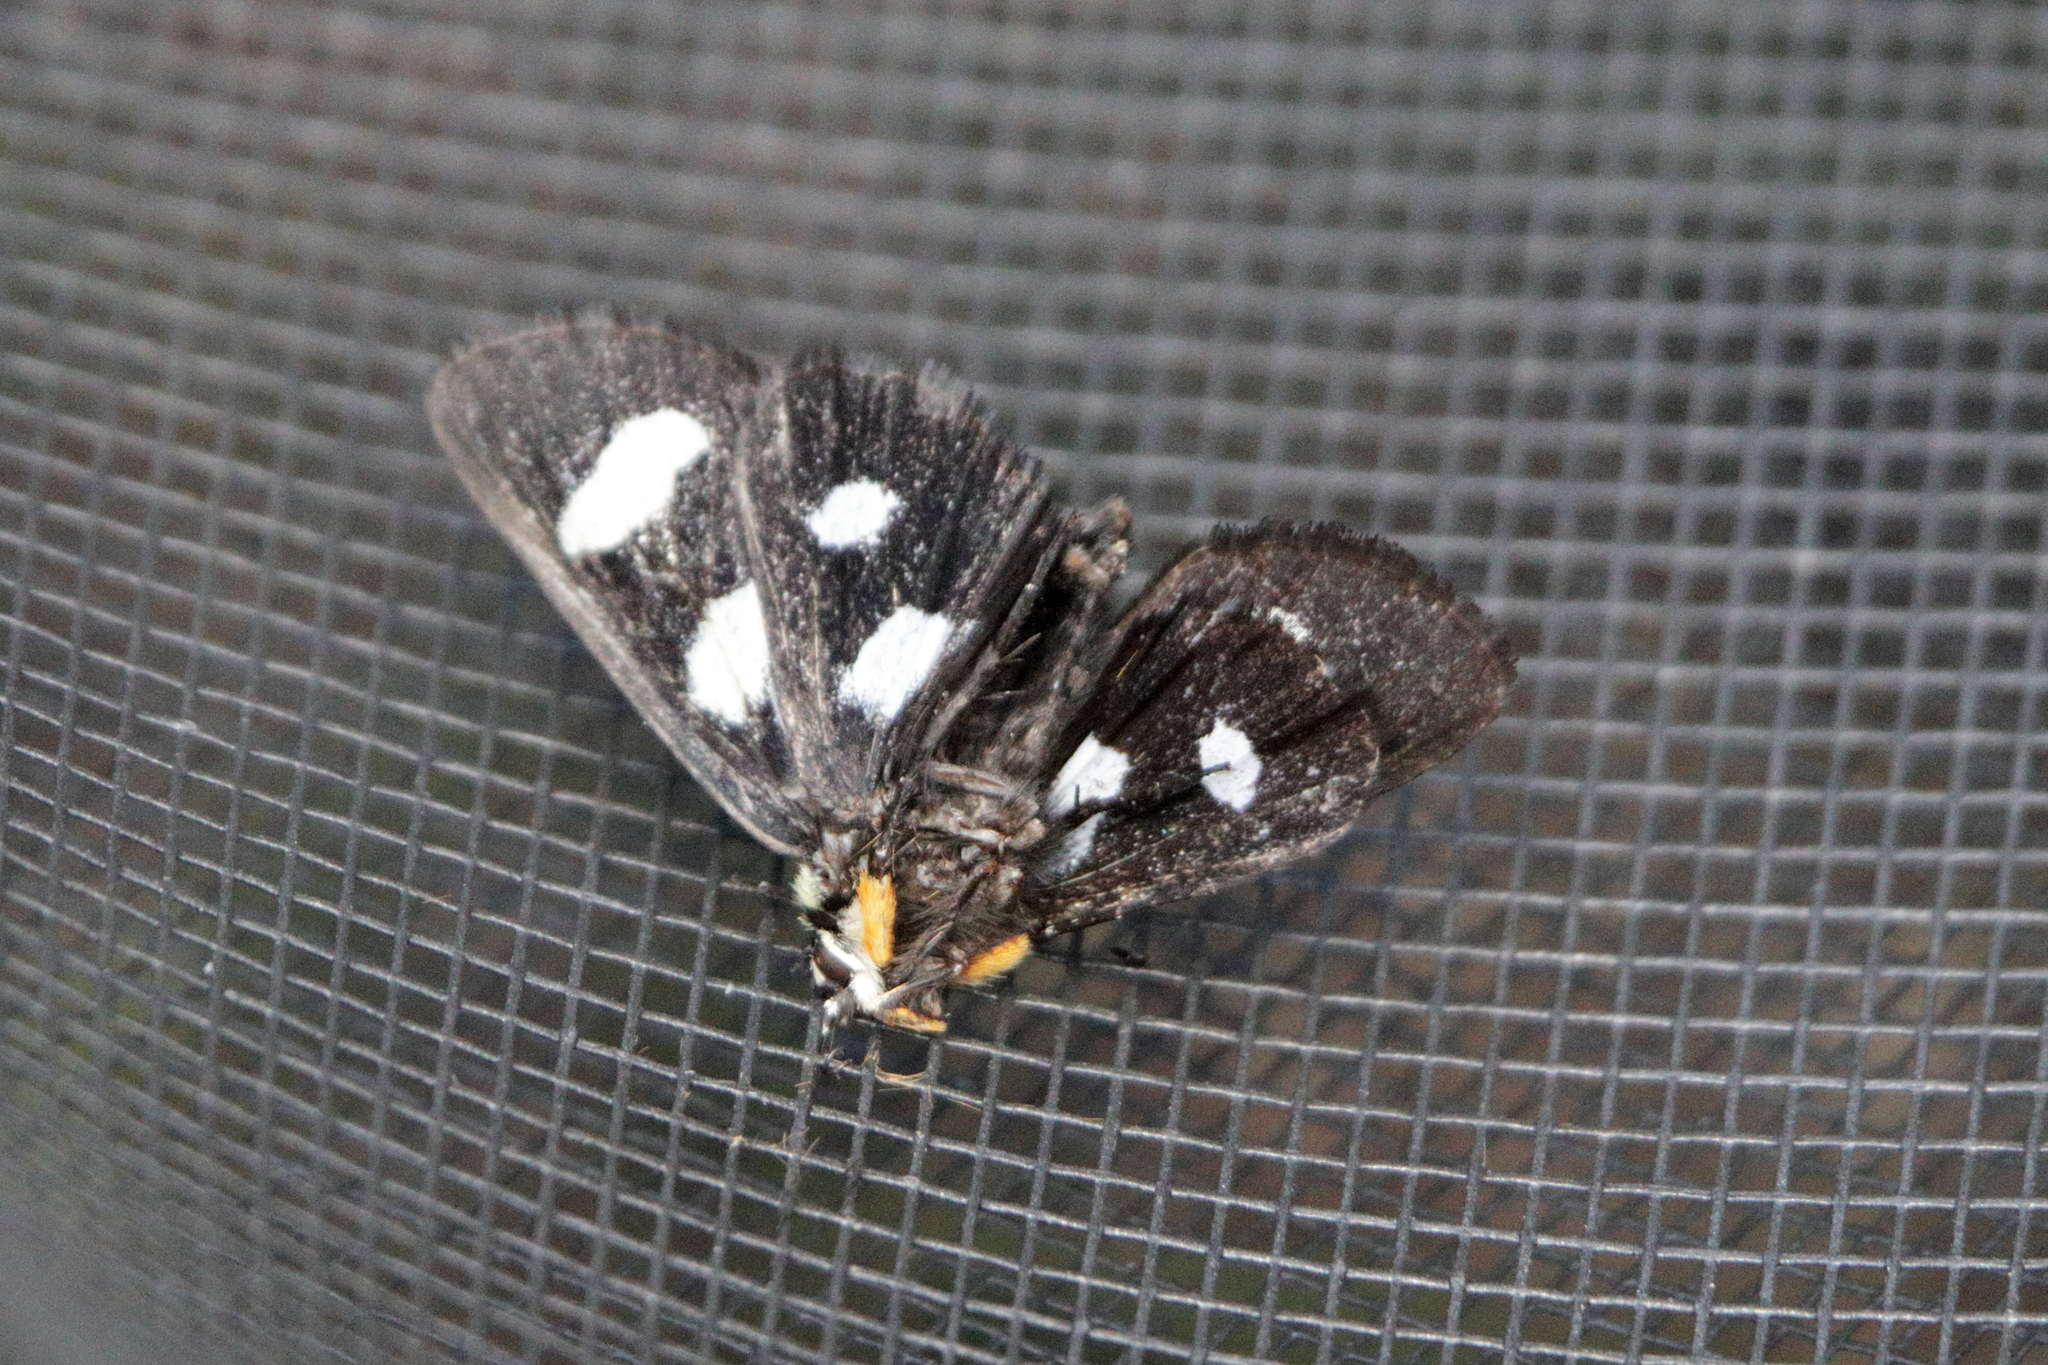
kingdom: Animalia
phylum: Arthropoda
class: Insecta
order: Lepidoptera
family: Noctuidae
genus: Alypia
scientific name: Alypia octomaculata
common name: Eight-spotted forester
